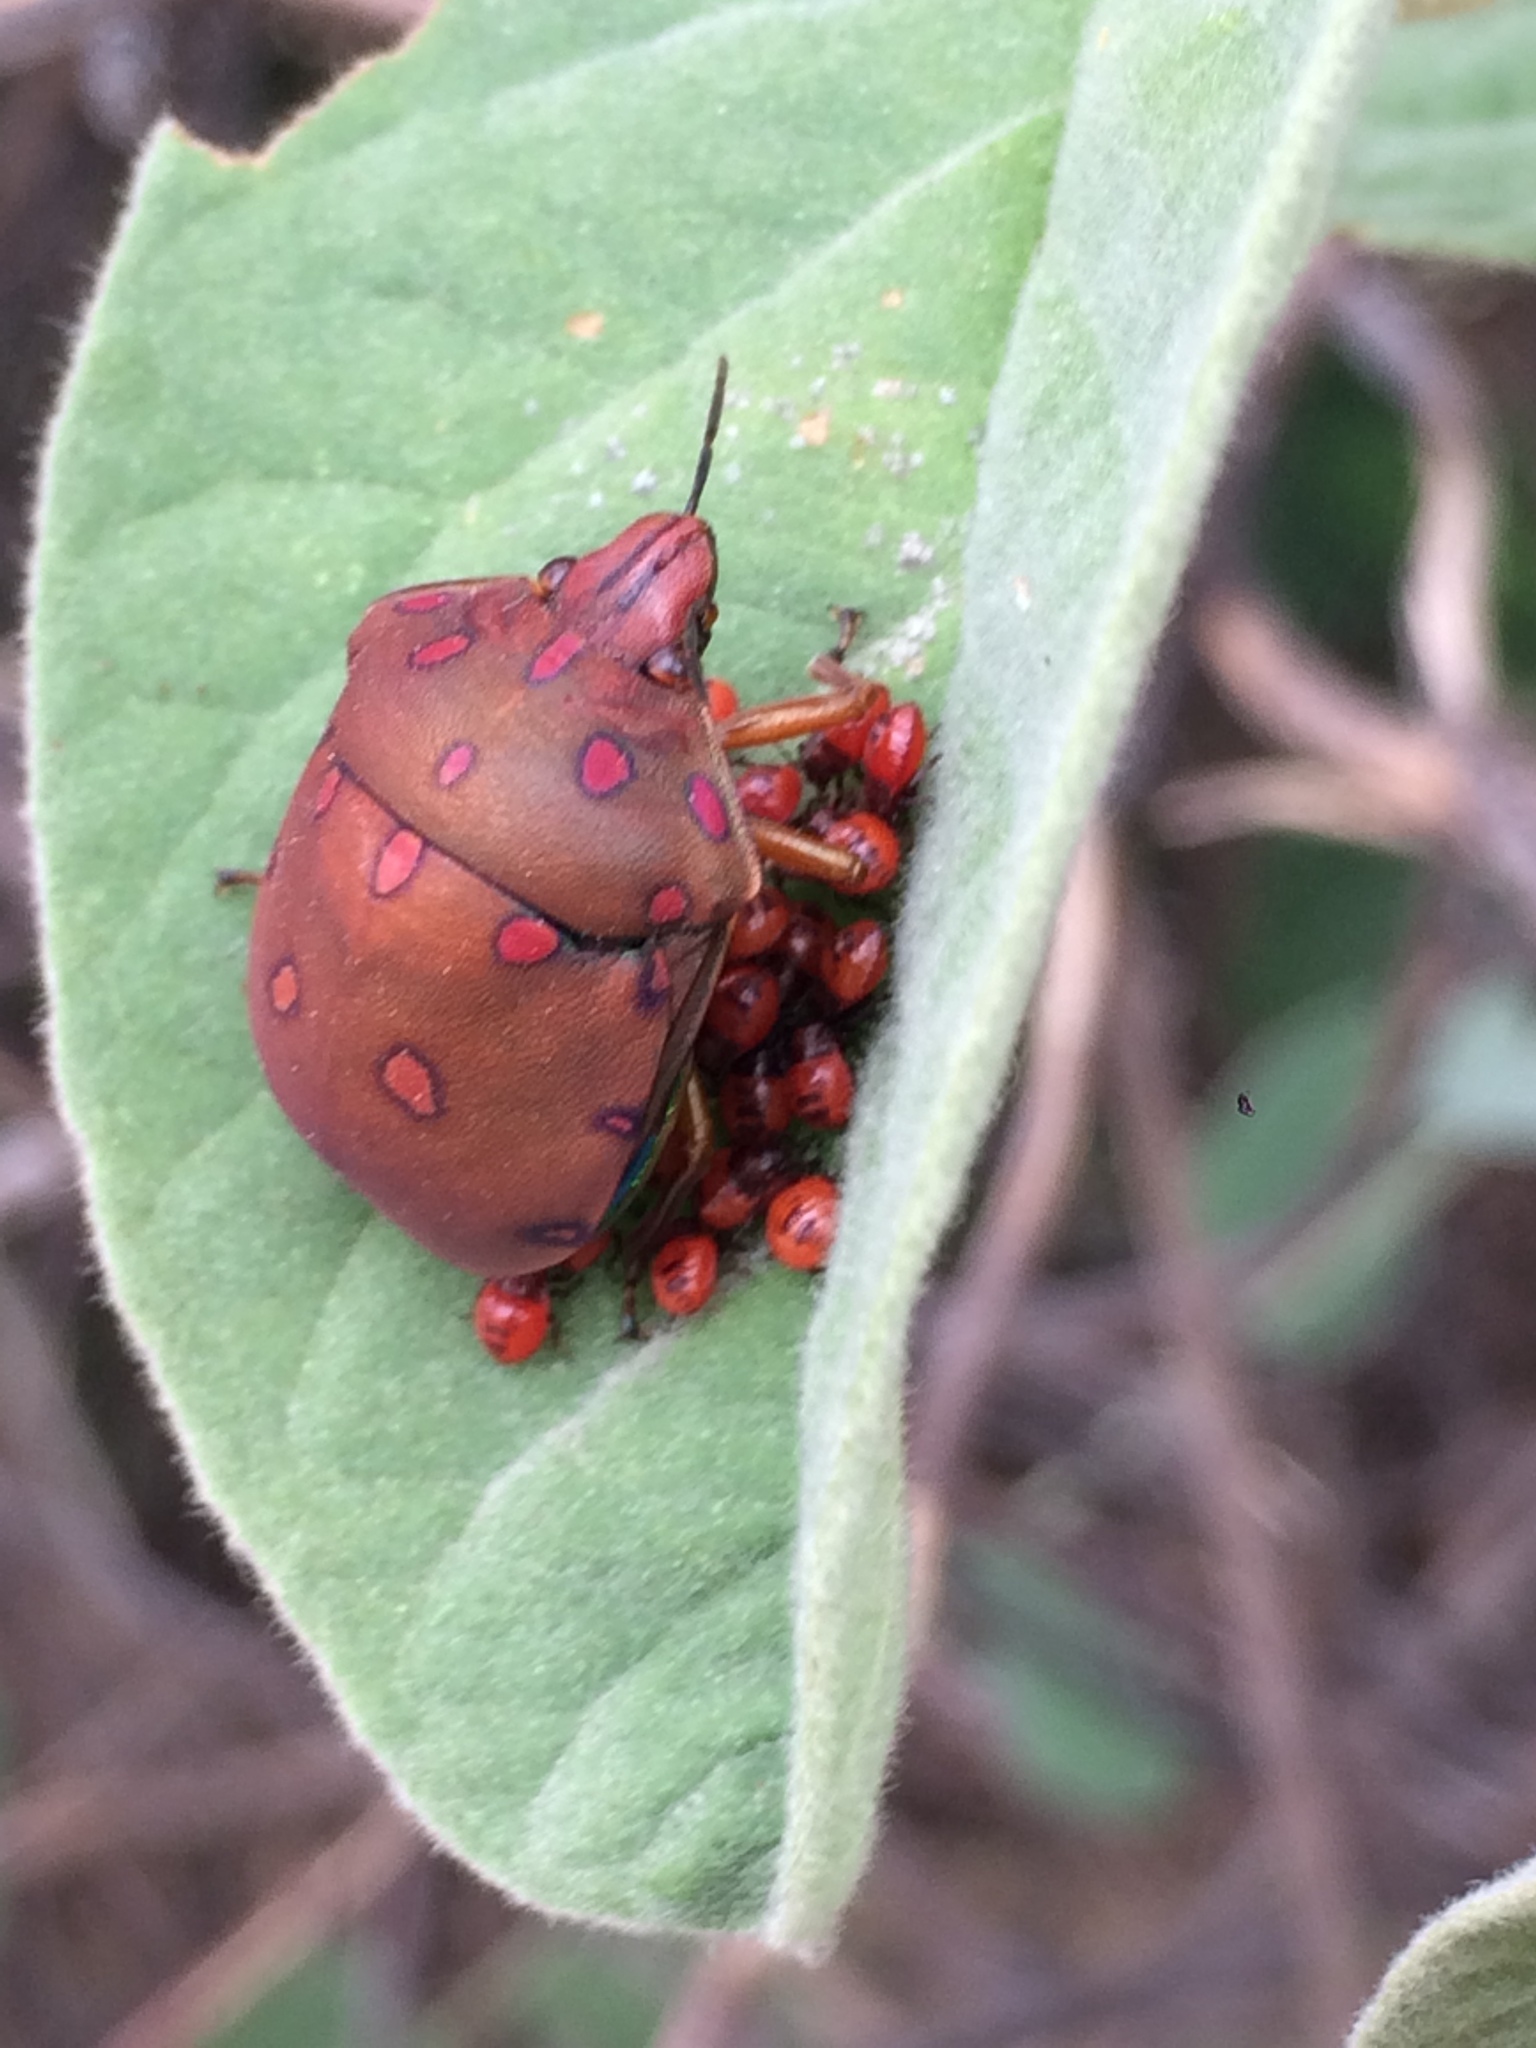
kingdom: Animalia
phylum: Arthropoda
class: Insecta
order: Hemiptera
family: Scutelleridae
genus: Pachycoris
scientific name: Pachycoris torridus
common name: Torrid jewel bug
